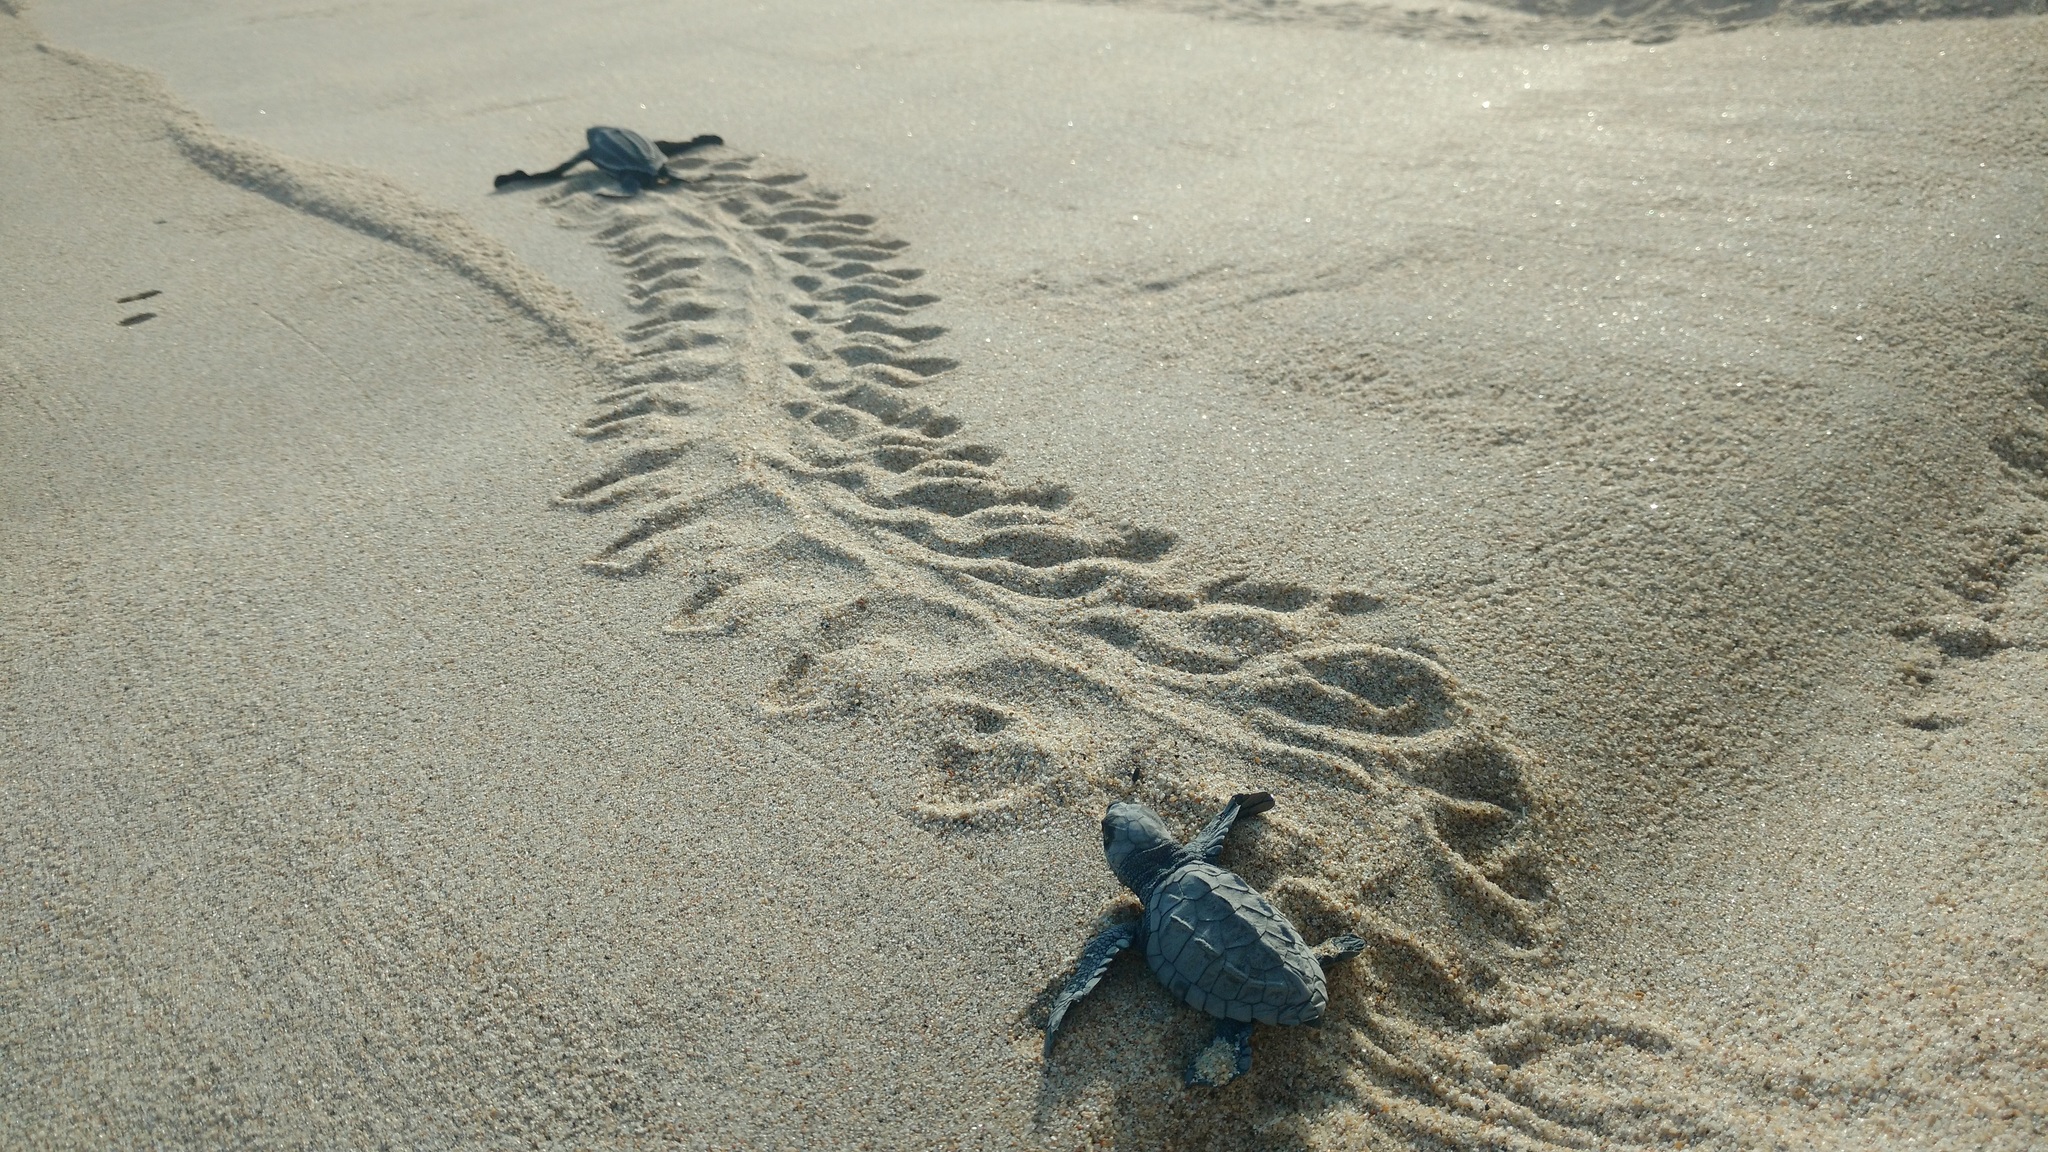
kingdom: Animalia
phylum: Chordata
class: Testudines
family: Cheloniidae
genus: Lepidochelys
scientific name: Lepidochelys olivacea
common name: Olive ridley
